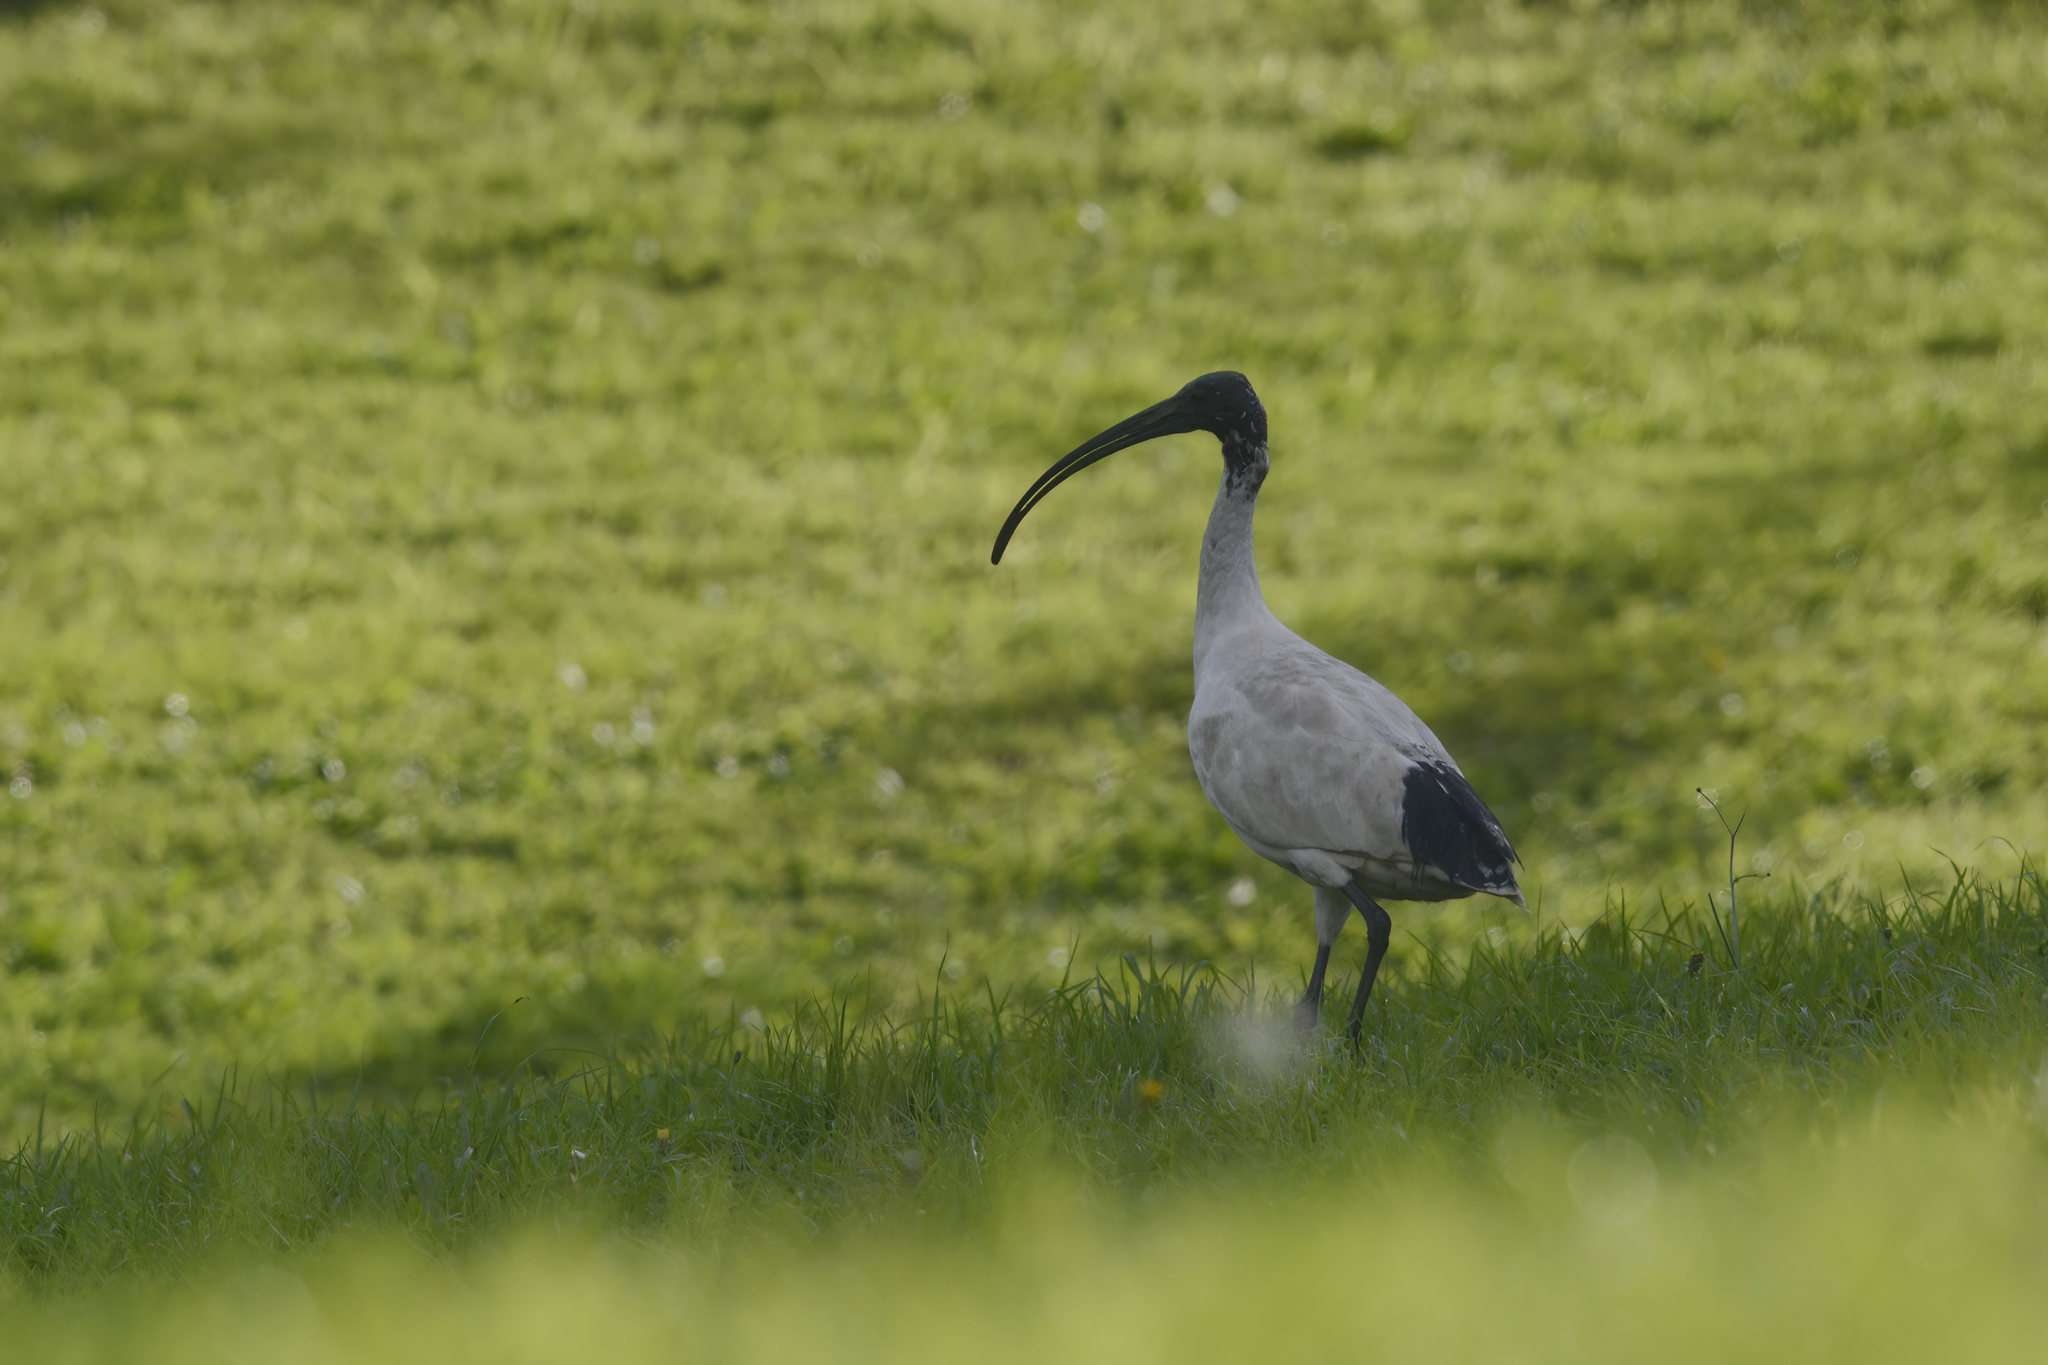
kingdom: Animalia
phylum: Chordata
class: Aves
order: Pelecaniformes
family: Threskiornithidae
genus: Threskiornis
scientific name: Threskiornis molucca
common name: Australian white ibis
